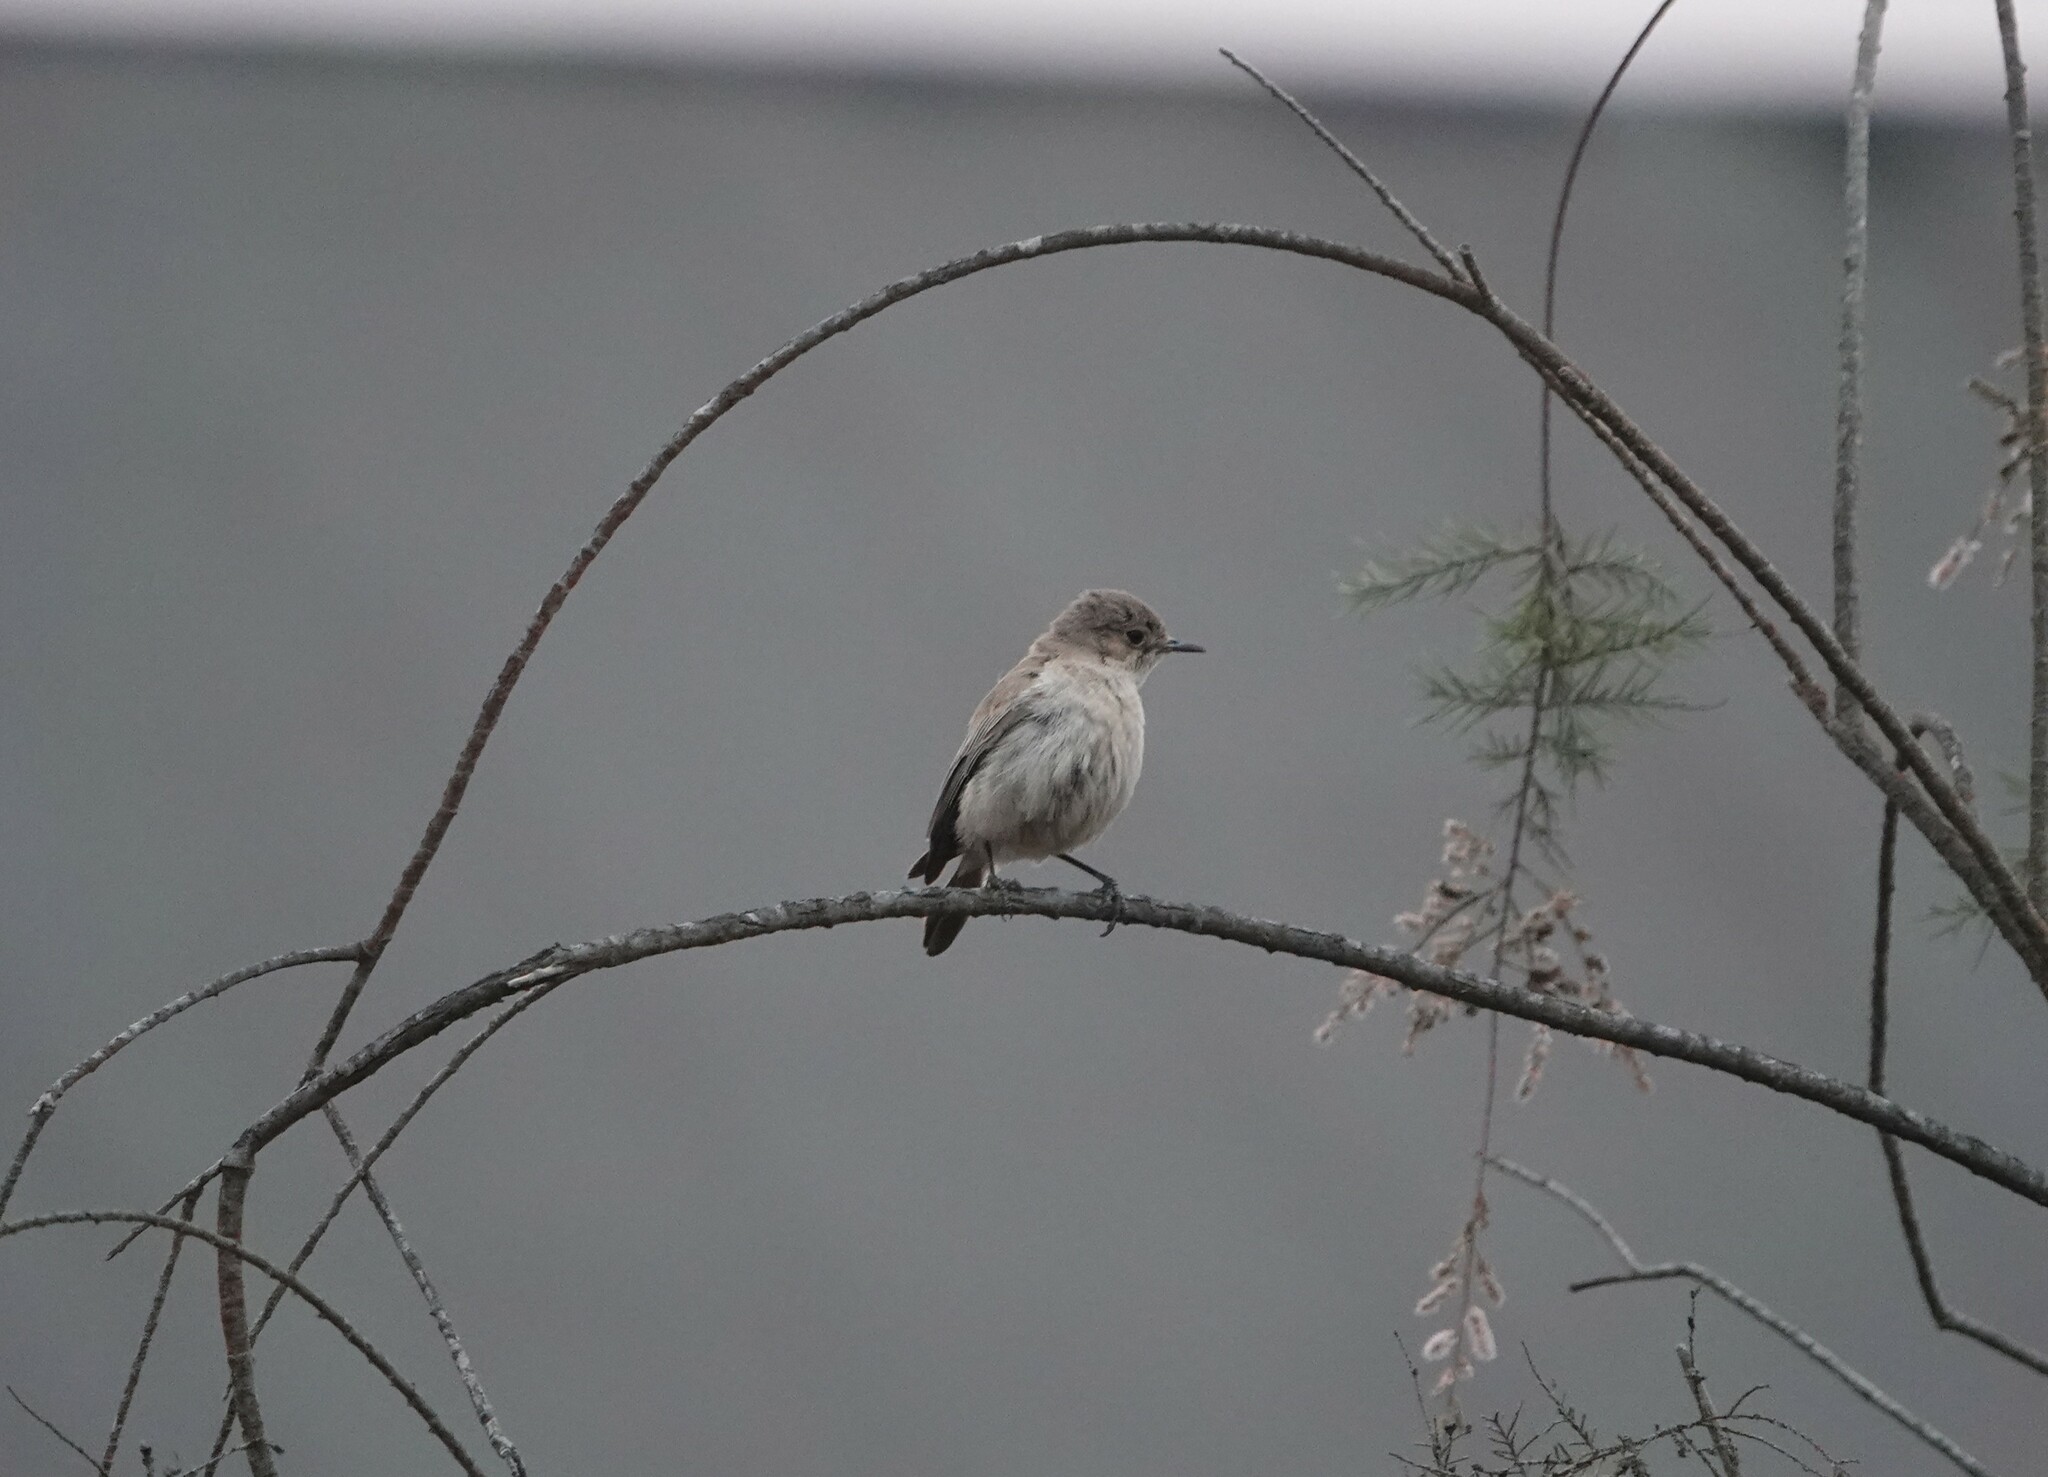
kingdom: Animalia
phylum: Chordata
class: Aves
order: Passeriformes
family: Muscicapidae
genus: Oenanthe
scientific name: Oenanthe familiaris
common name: Familiar chat
